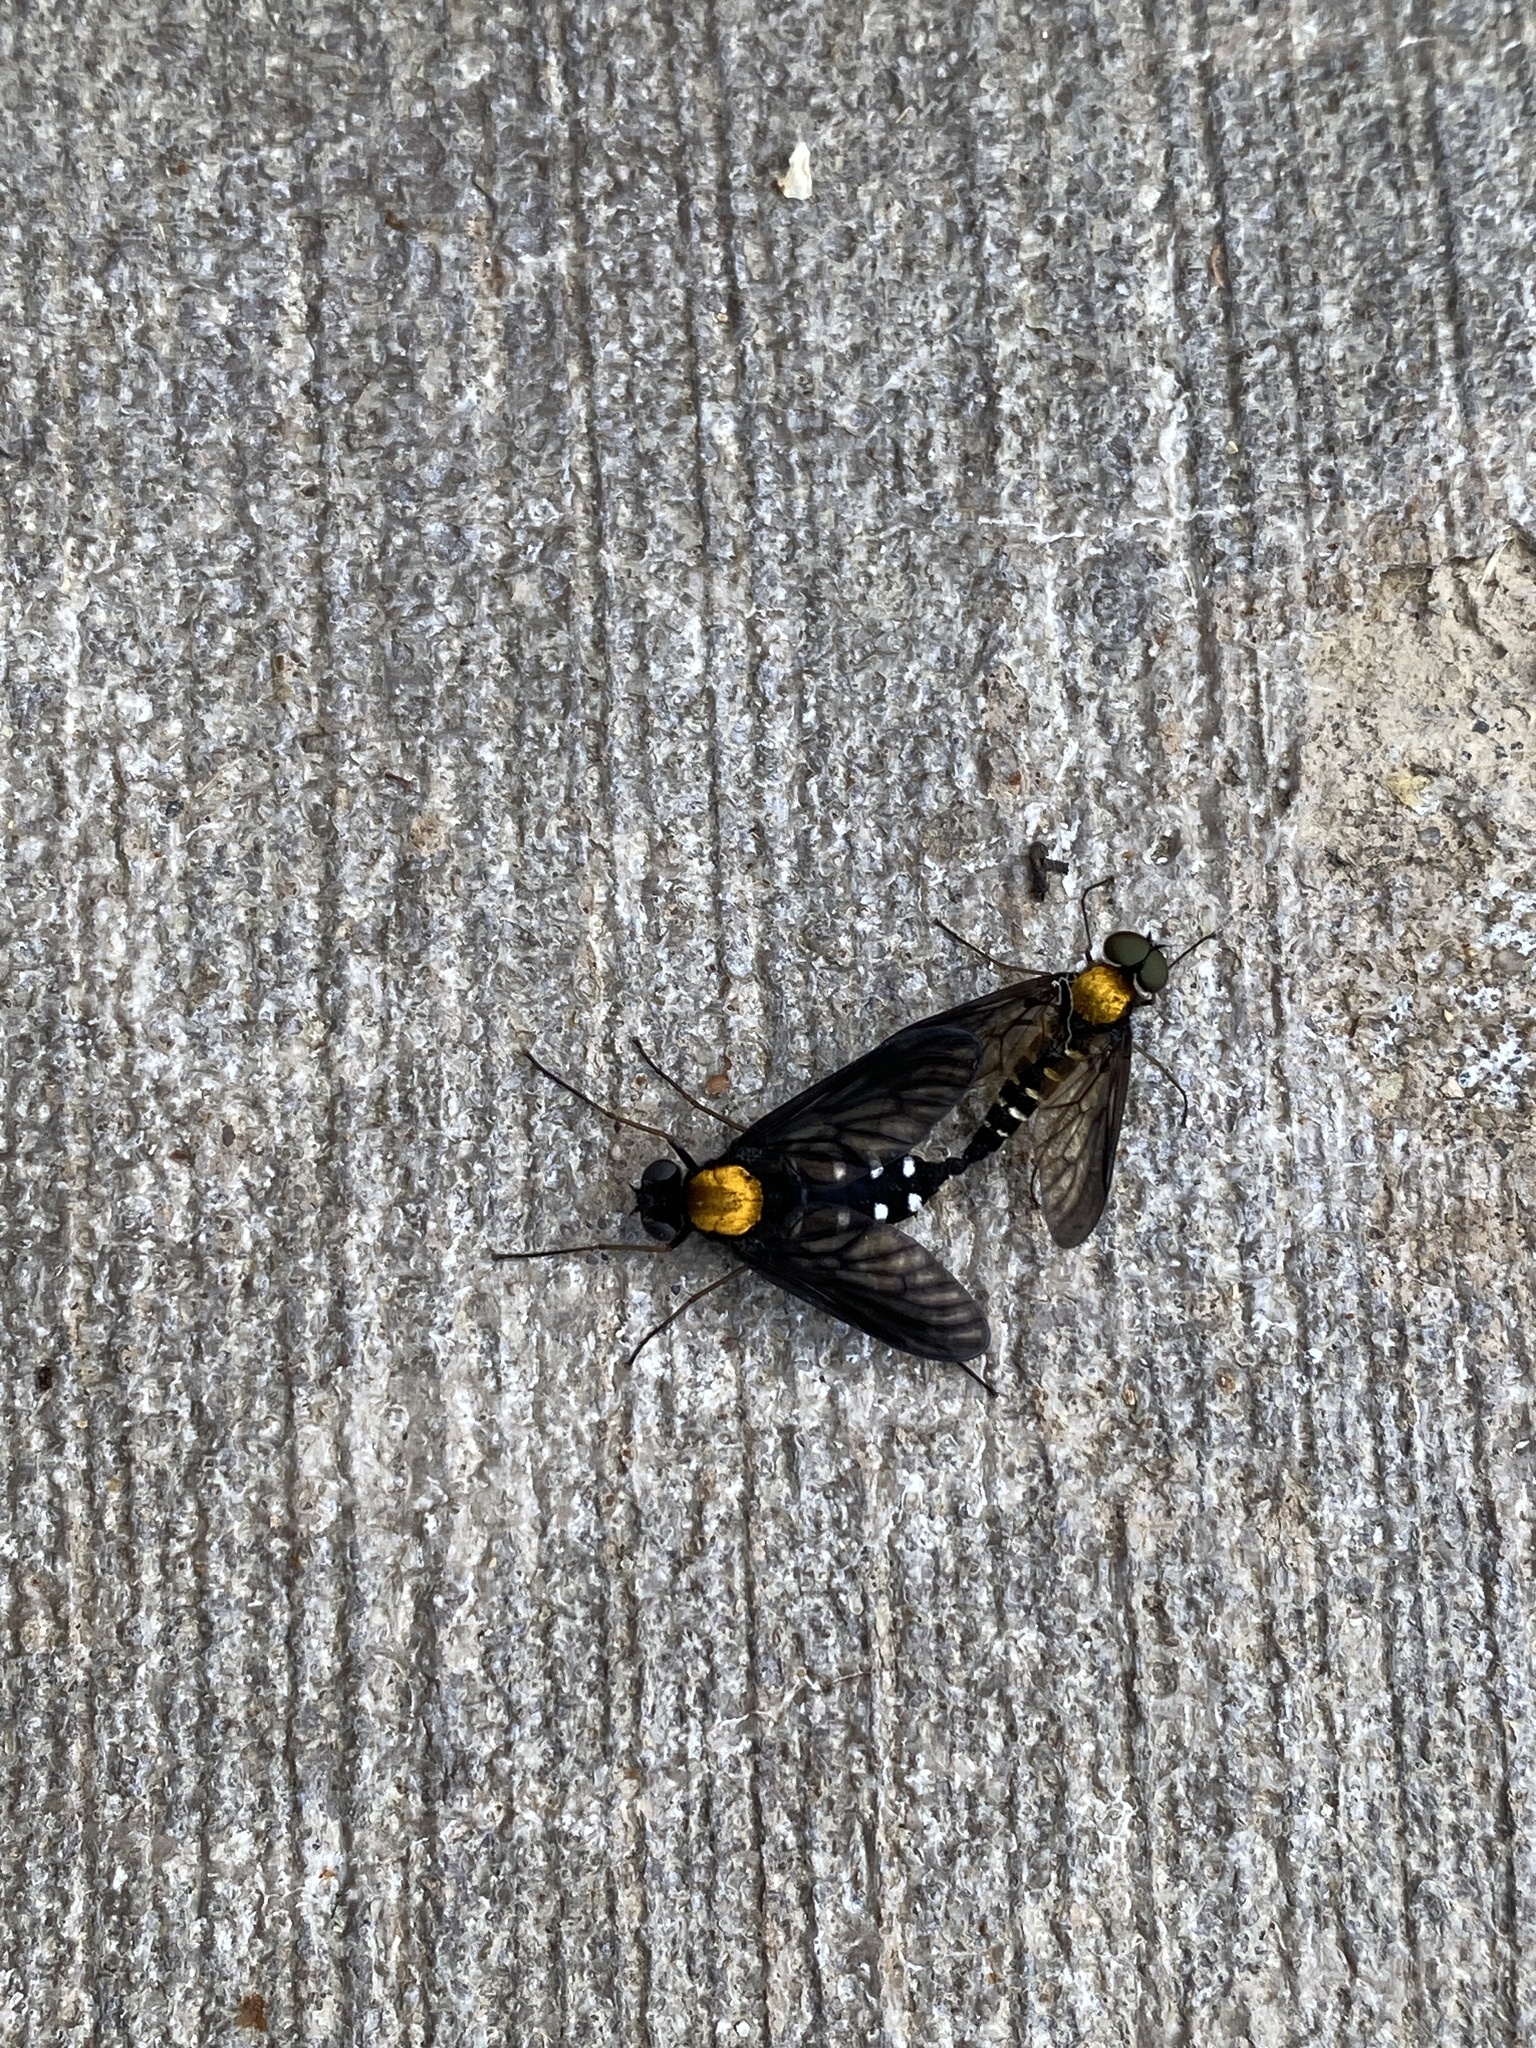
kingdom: Animalia
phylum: Arthropoda
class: Insecta
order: Diptera
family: Rhagionidae
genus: Chrysopilus
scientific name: Chrysopilus thoracicus
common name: Golden-backed snipe fly
